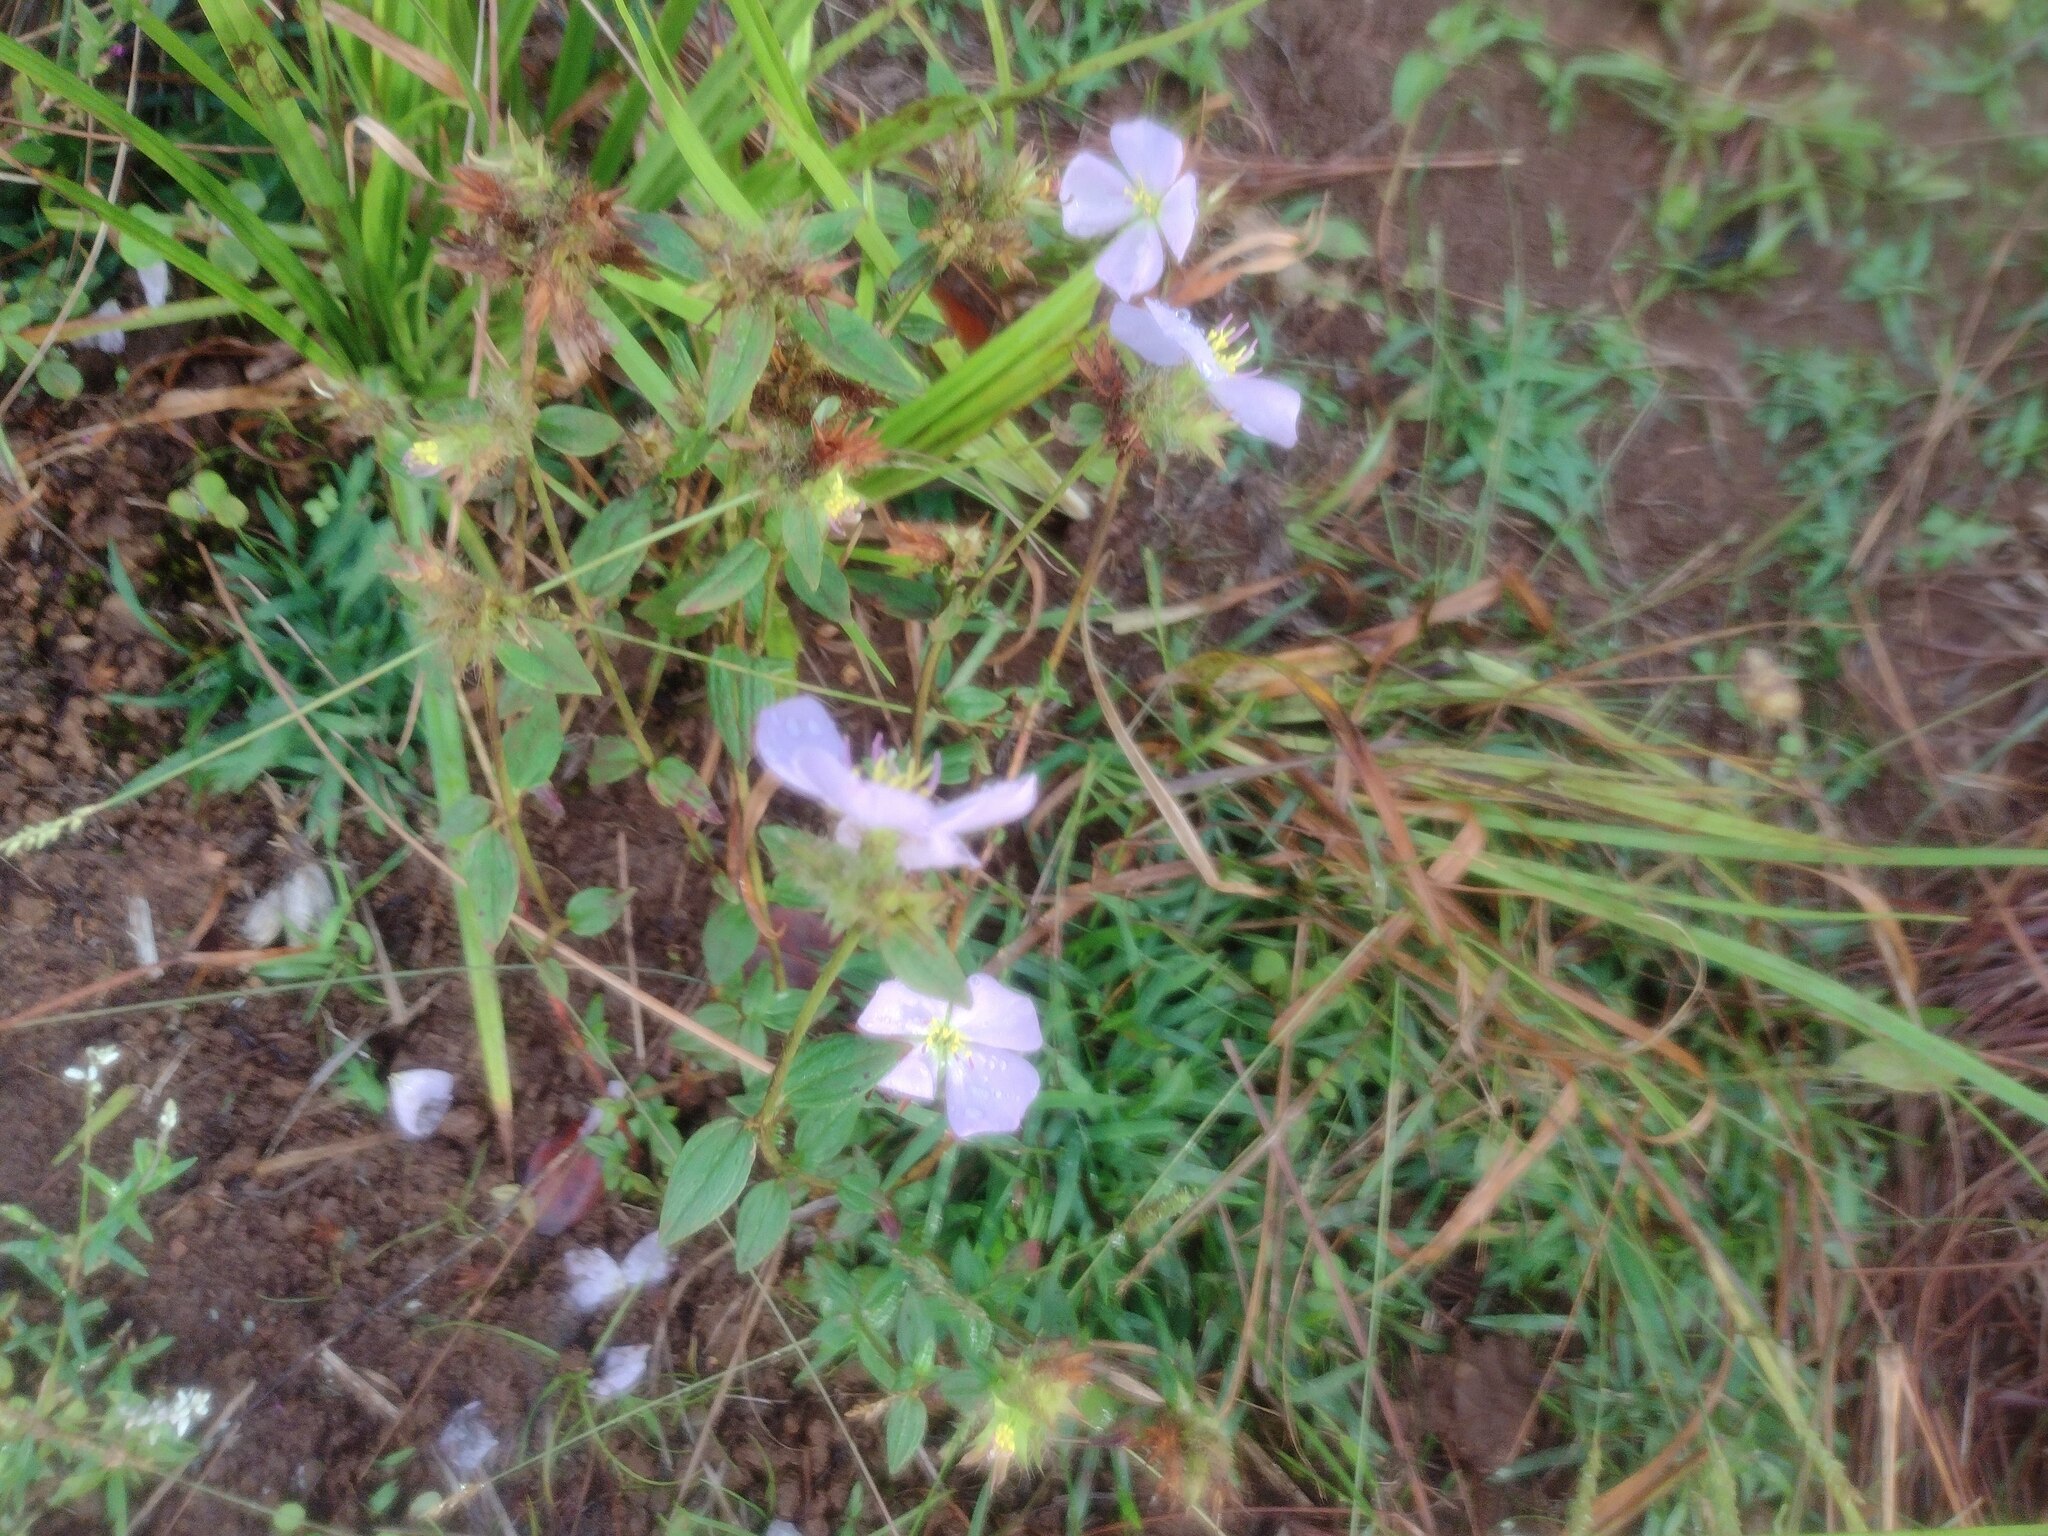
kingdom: Plantae
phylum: Tracheophyta
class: Magnoliopsida
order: Myrtales
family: Melastomataceae
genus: Pterolepis
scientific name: Pterolepis glomerata
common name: False meadowbeauty
